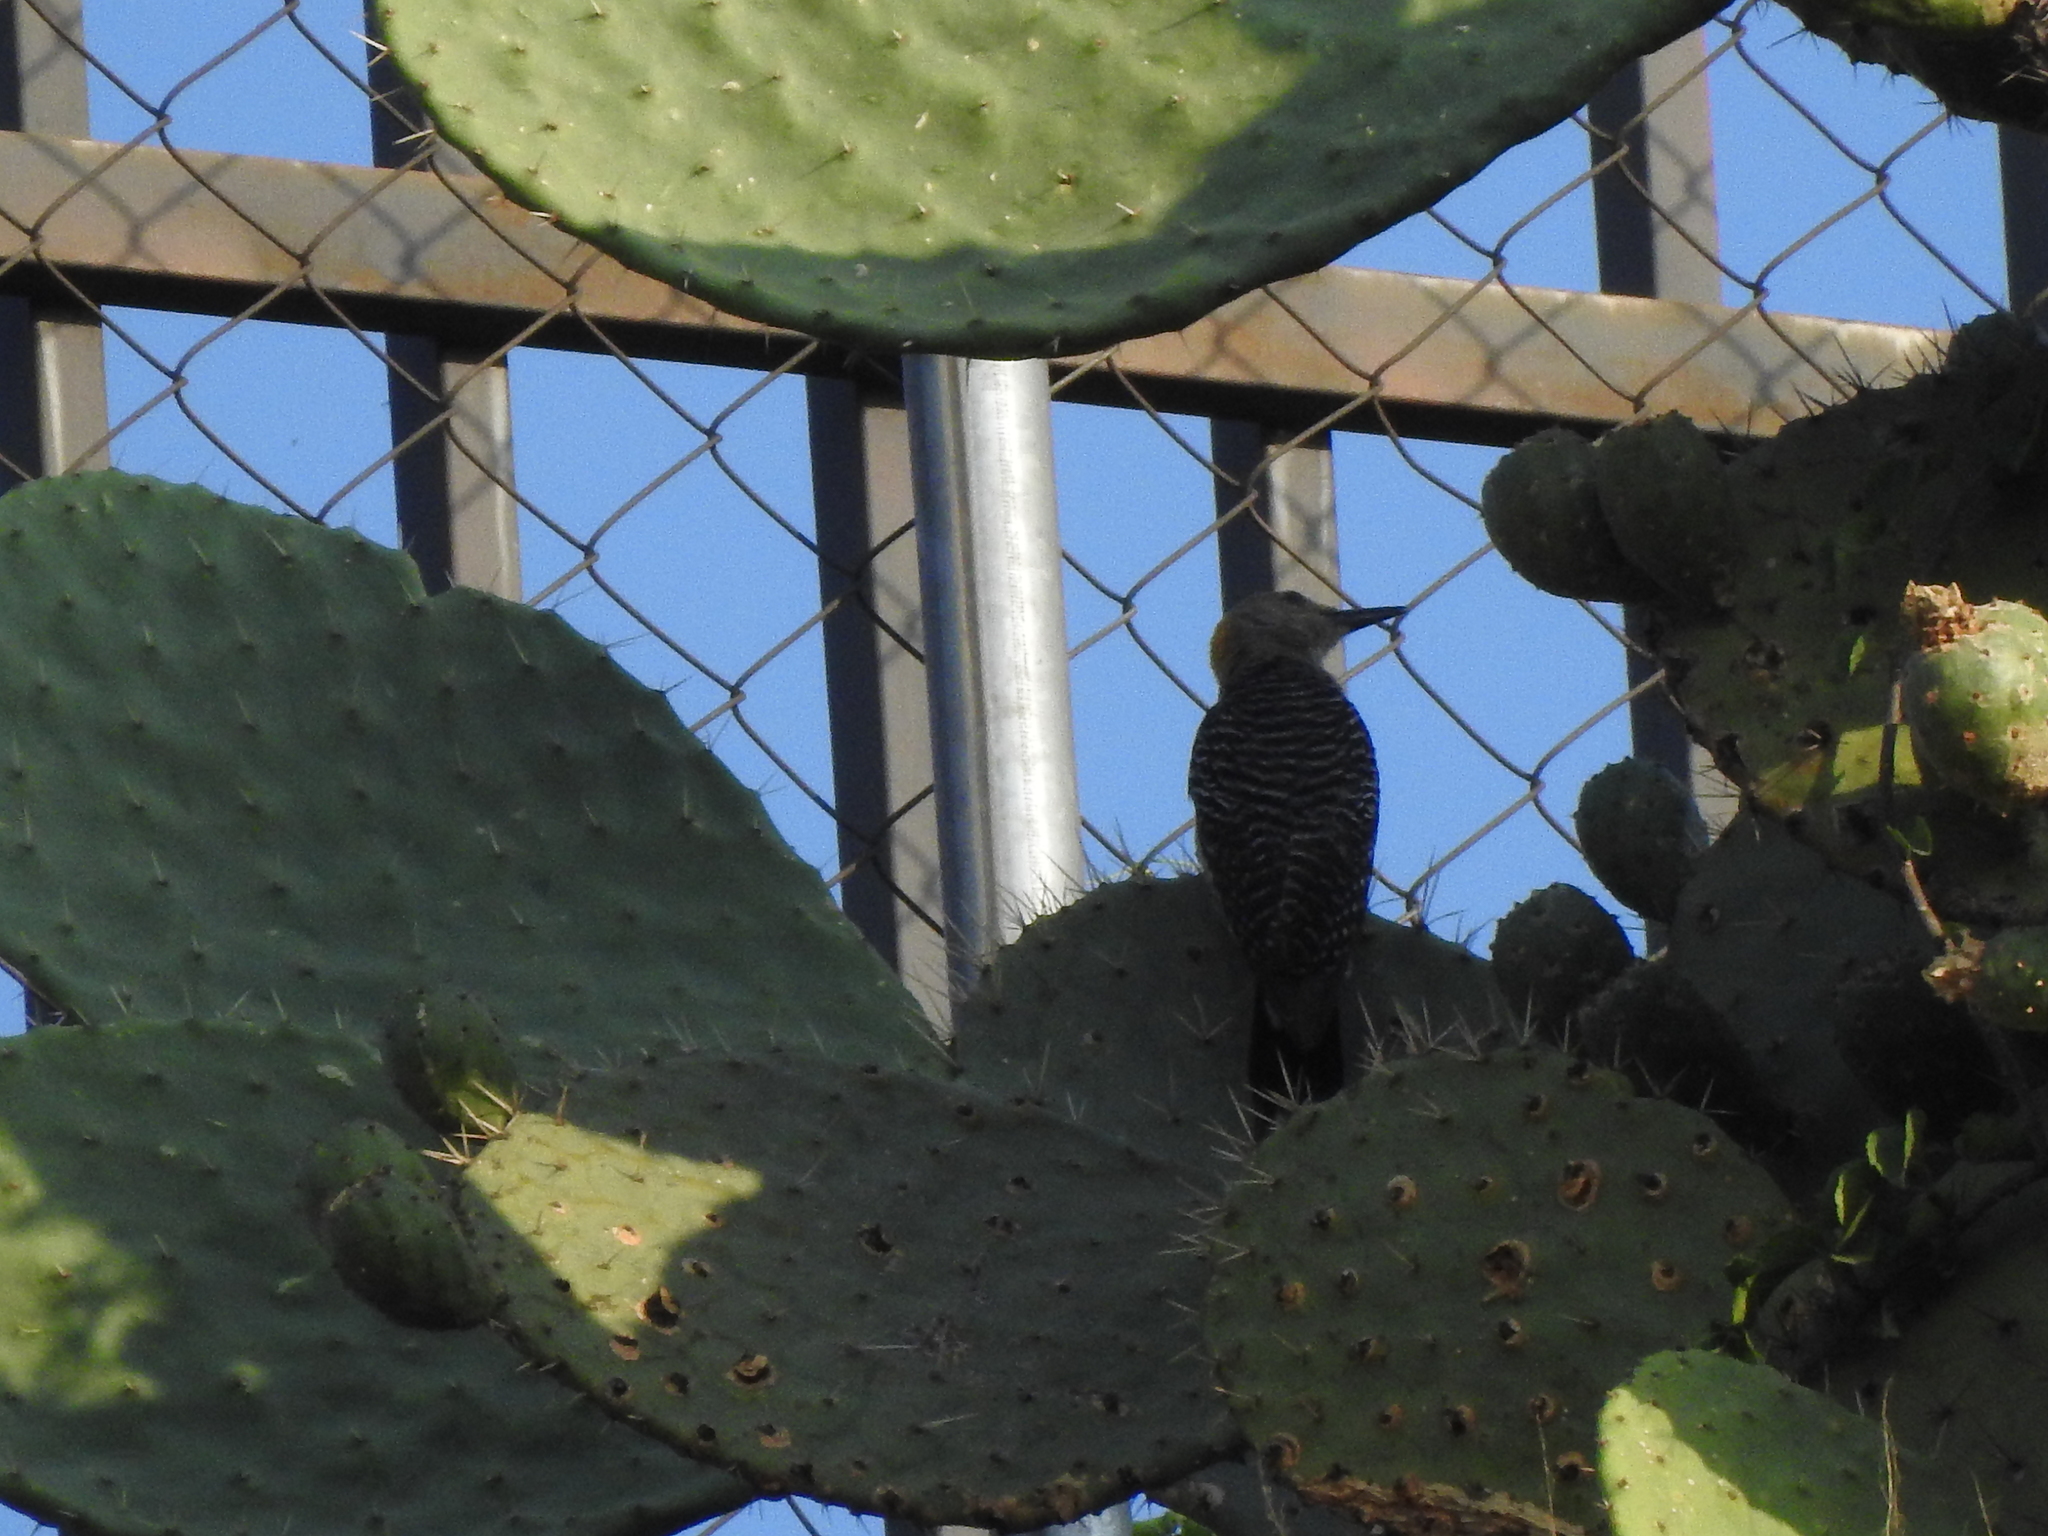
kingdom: Animalia
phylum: Chordata
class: Aves
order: Piciformes
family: Picidae
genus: Melanerpes
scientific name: Melanerpes aurifrons
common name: Golden-fronted woodpecker
